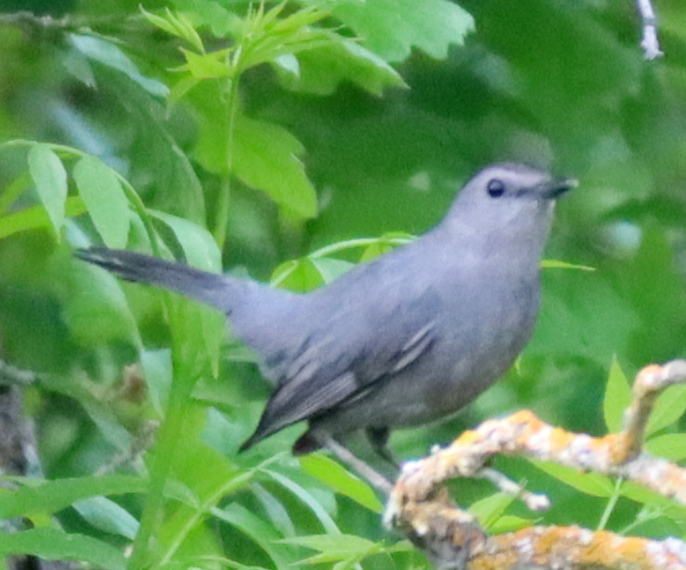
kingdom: Animalia
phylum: Chordata
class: Aves
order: Passeriformes
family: Mimidae
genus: Dumetella
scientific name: Dumetella carolinensis
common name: Gray catbird
